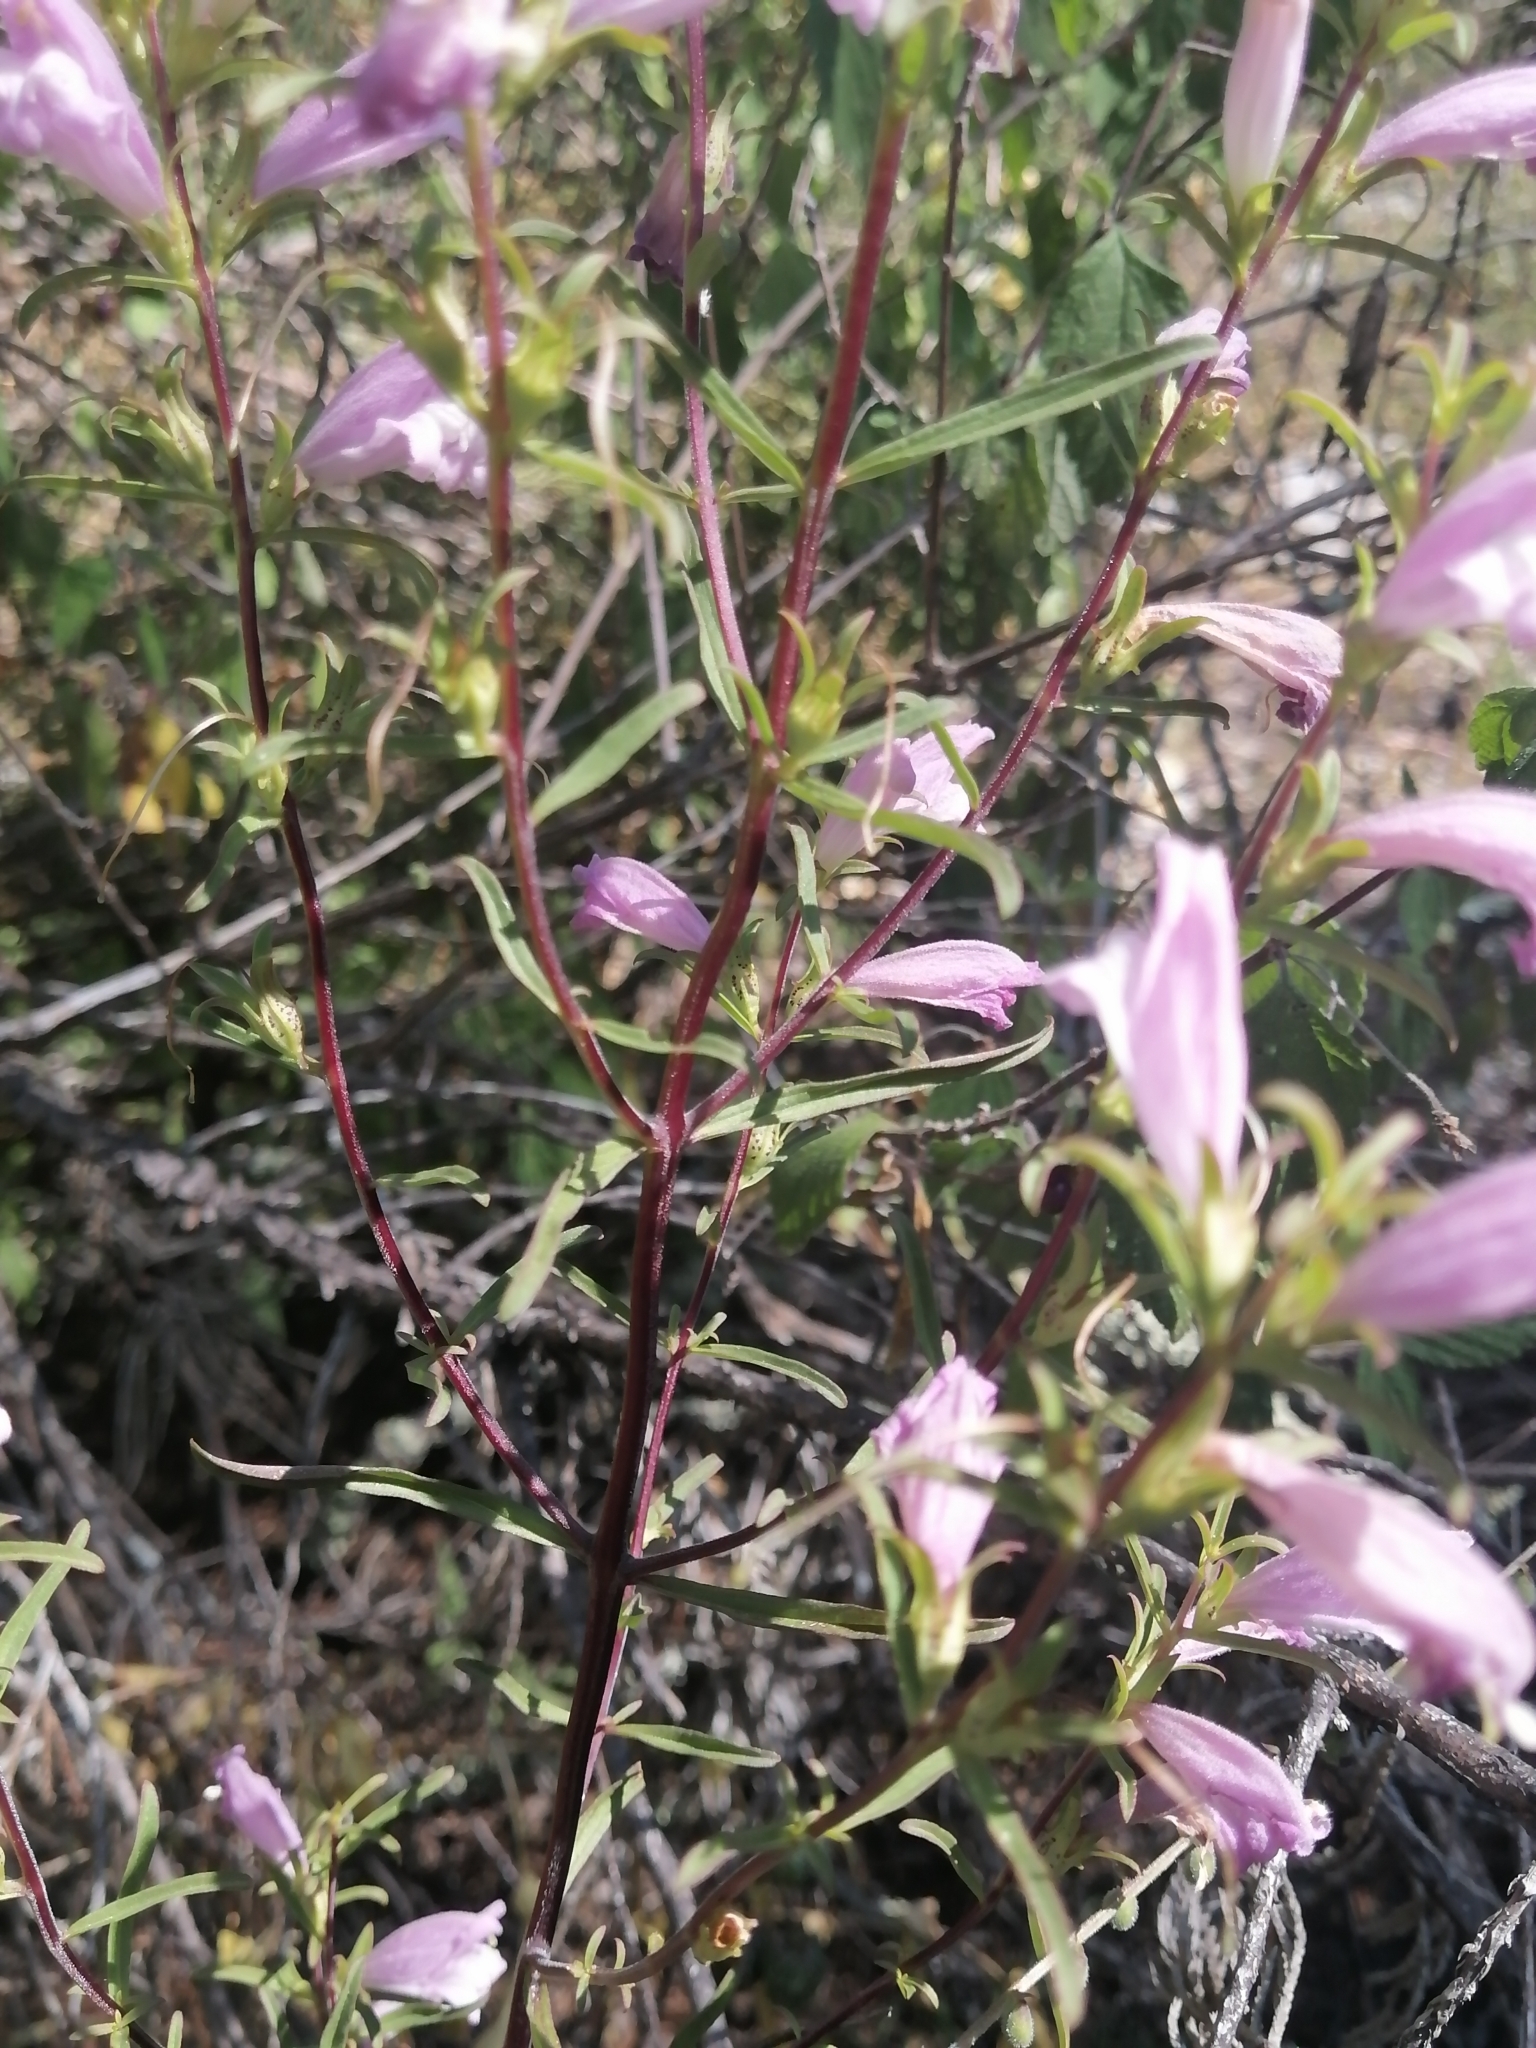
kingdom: Plantae
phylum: Tracheophyta
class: Magnoliopsida
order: Lamiales
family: Orobanchaceae
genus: Lamourouxia
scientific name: Lamourouxia dasyantha
